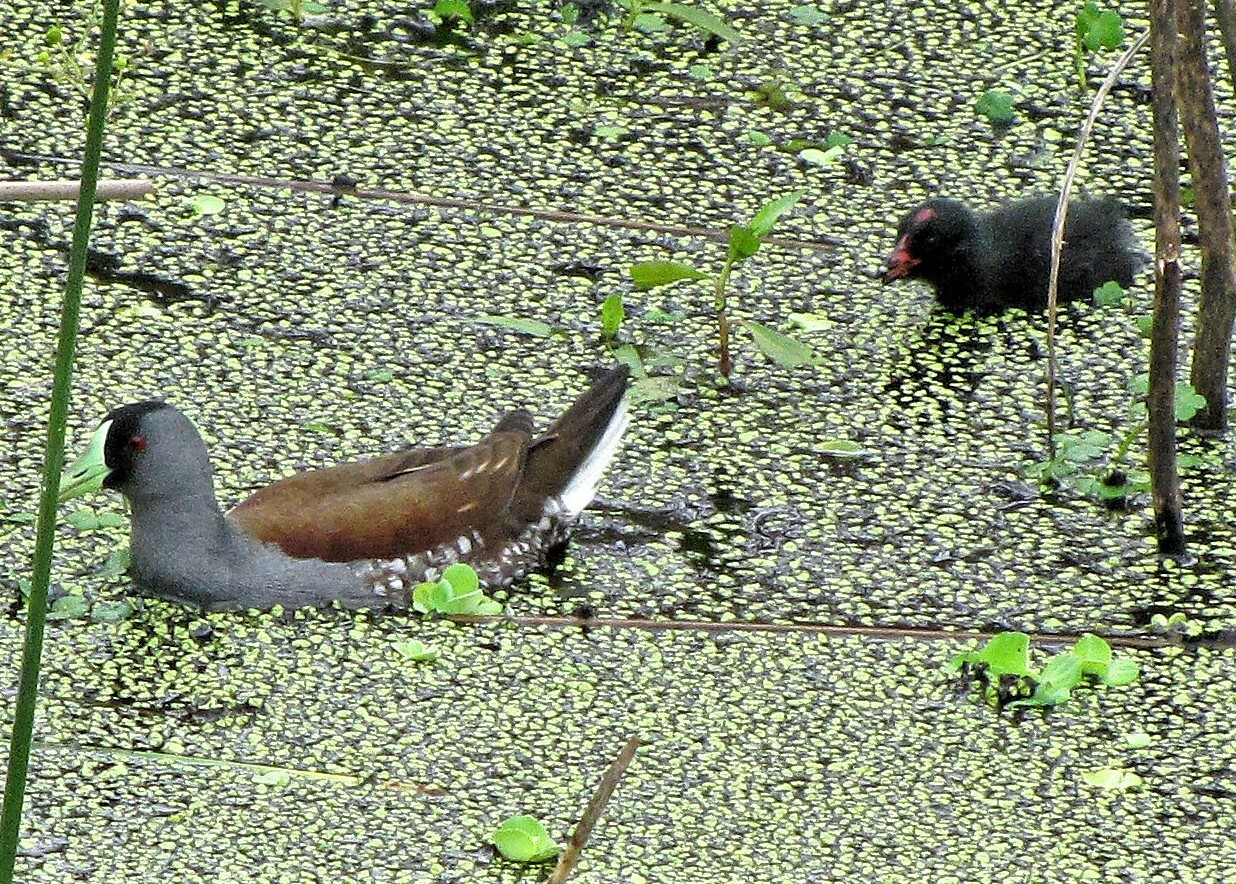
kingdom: Animalia
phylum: Chordata
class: Aves
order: Gruiformes
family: Rallidae
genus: Gallinula
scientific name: Gallinula melanops
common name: Spot-flanked gallinule
